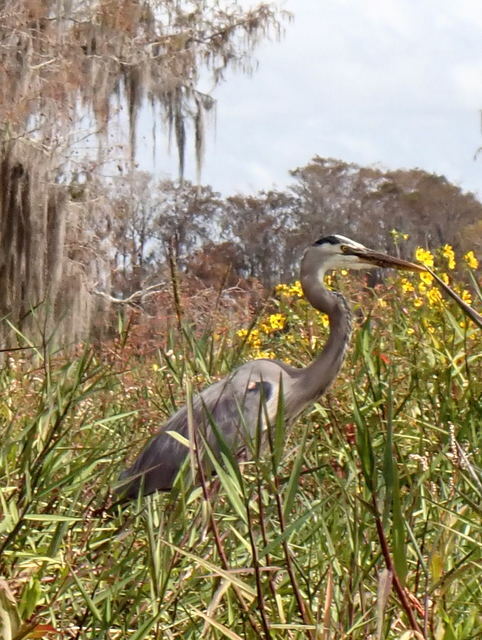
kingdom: Animalia
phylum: Chordata
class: Aves
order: Pelecaniformes
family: Ardeidae
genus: Ardea
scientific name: Ardea herodias
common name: Great blue heron
